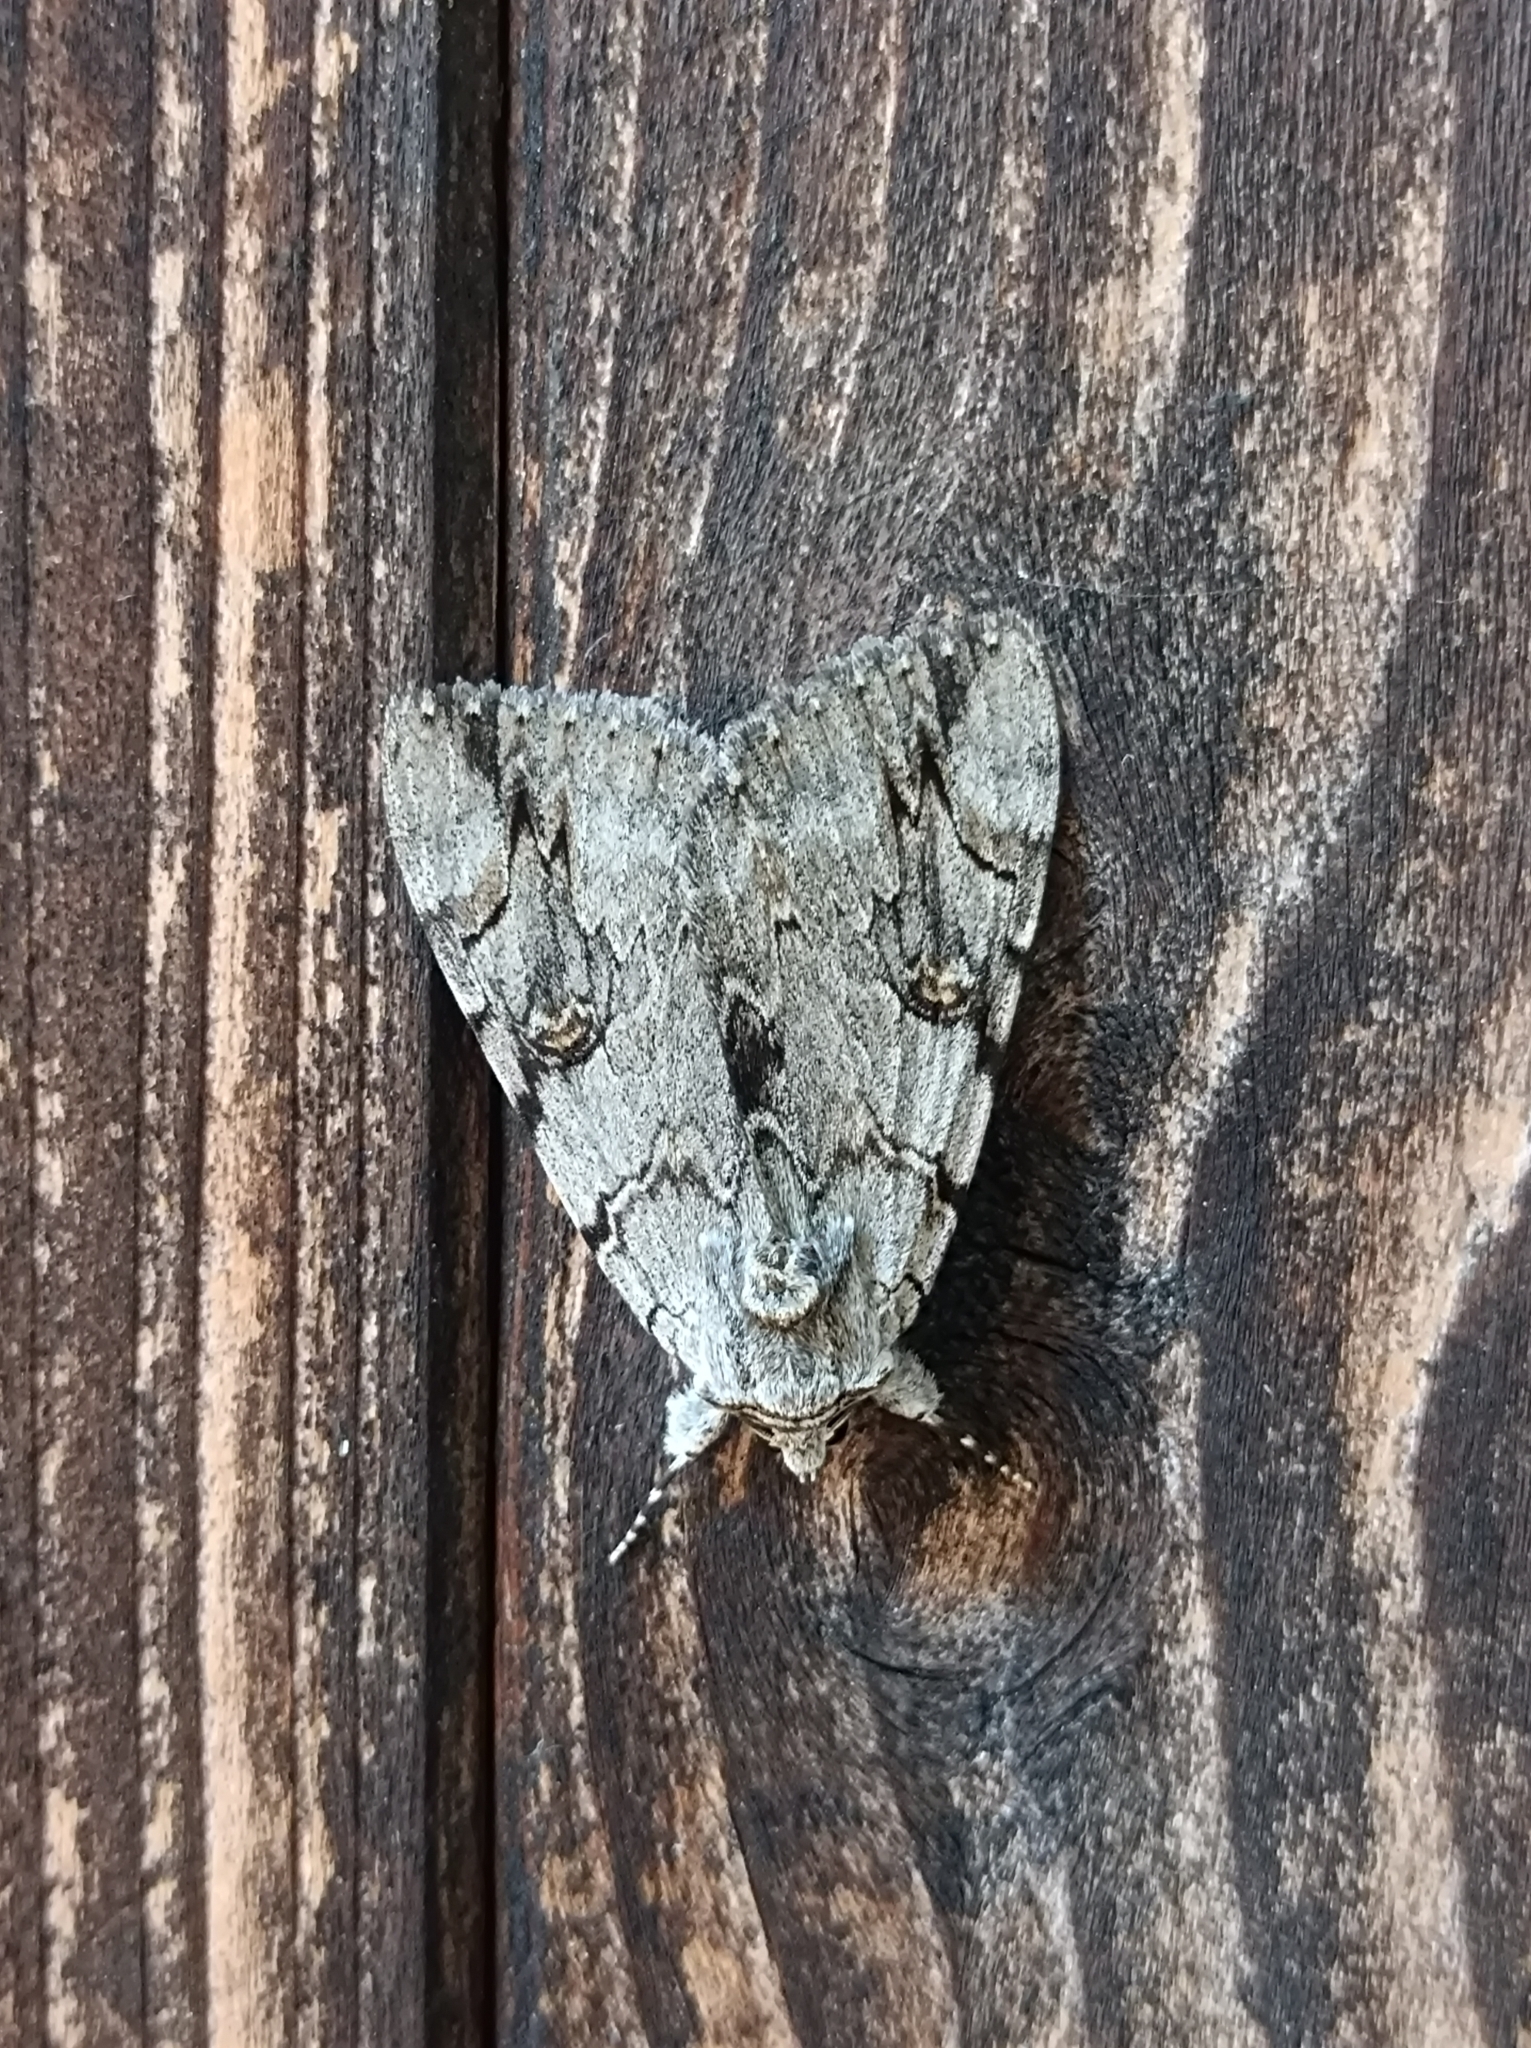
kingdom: Animalia
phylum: Arthropoda
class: Insecta
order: Lepidoptera
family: Erebidae
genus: Catocala
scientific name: Catocala electa
